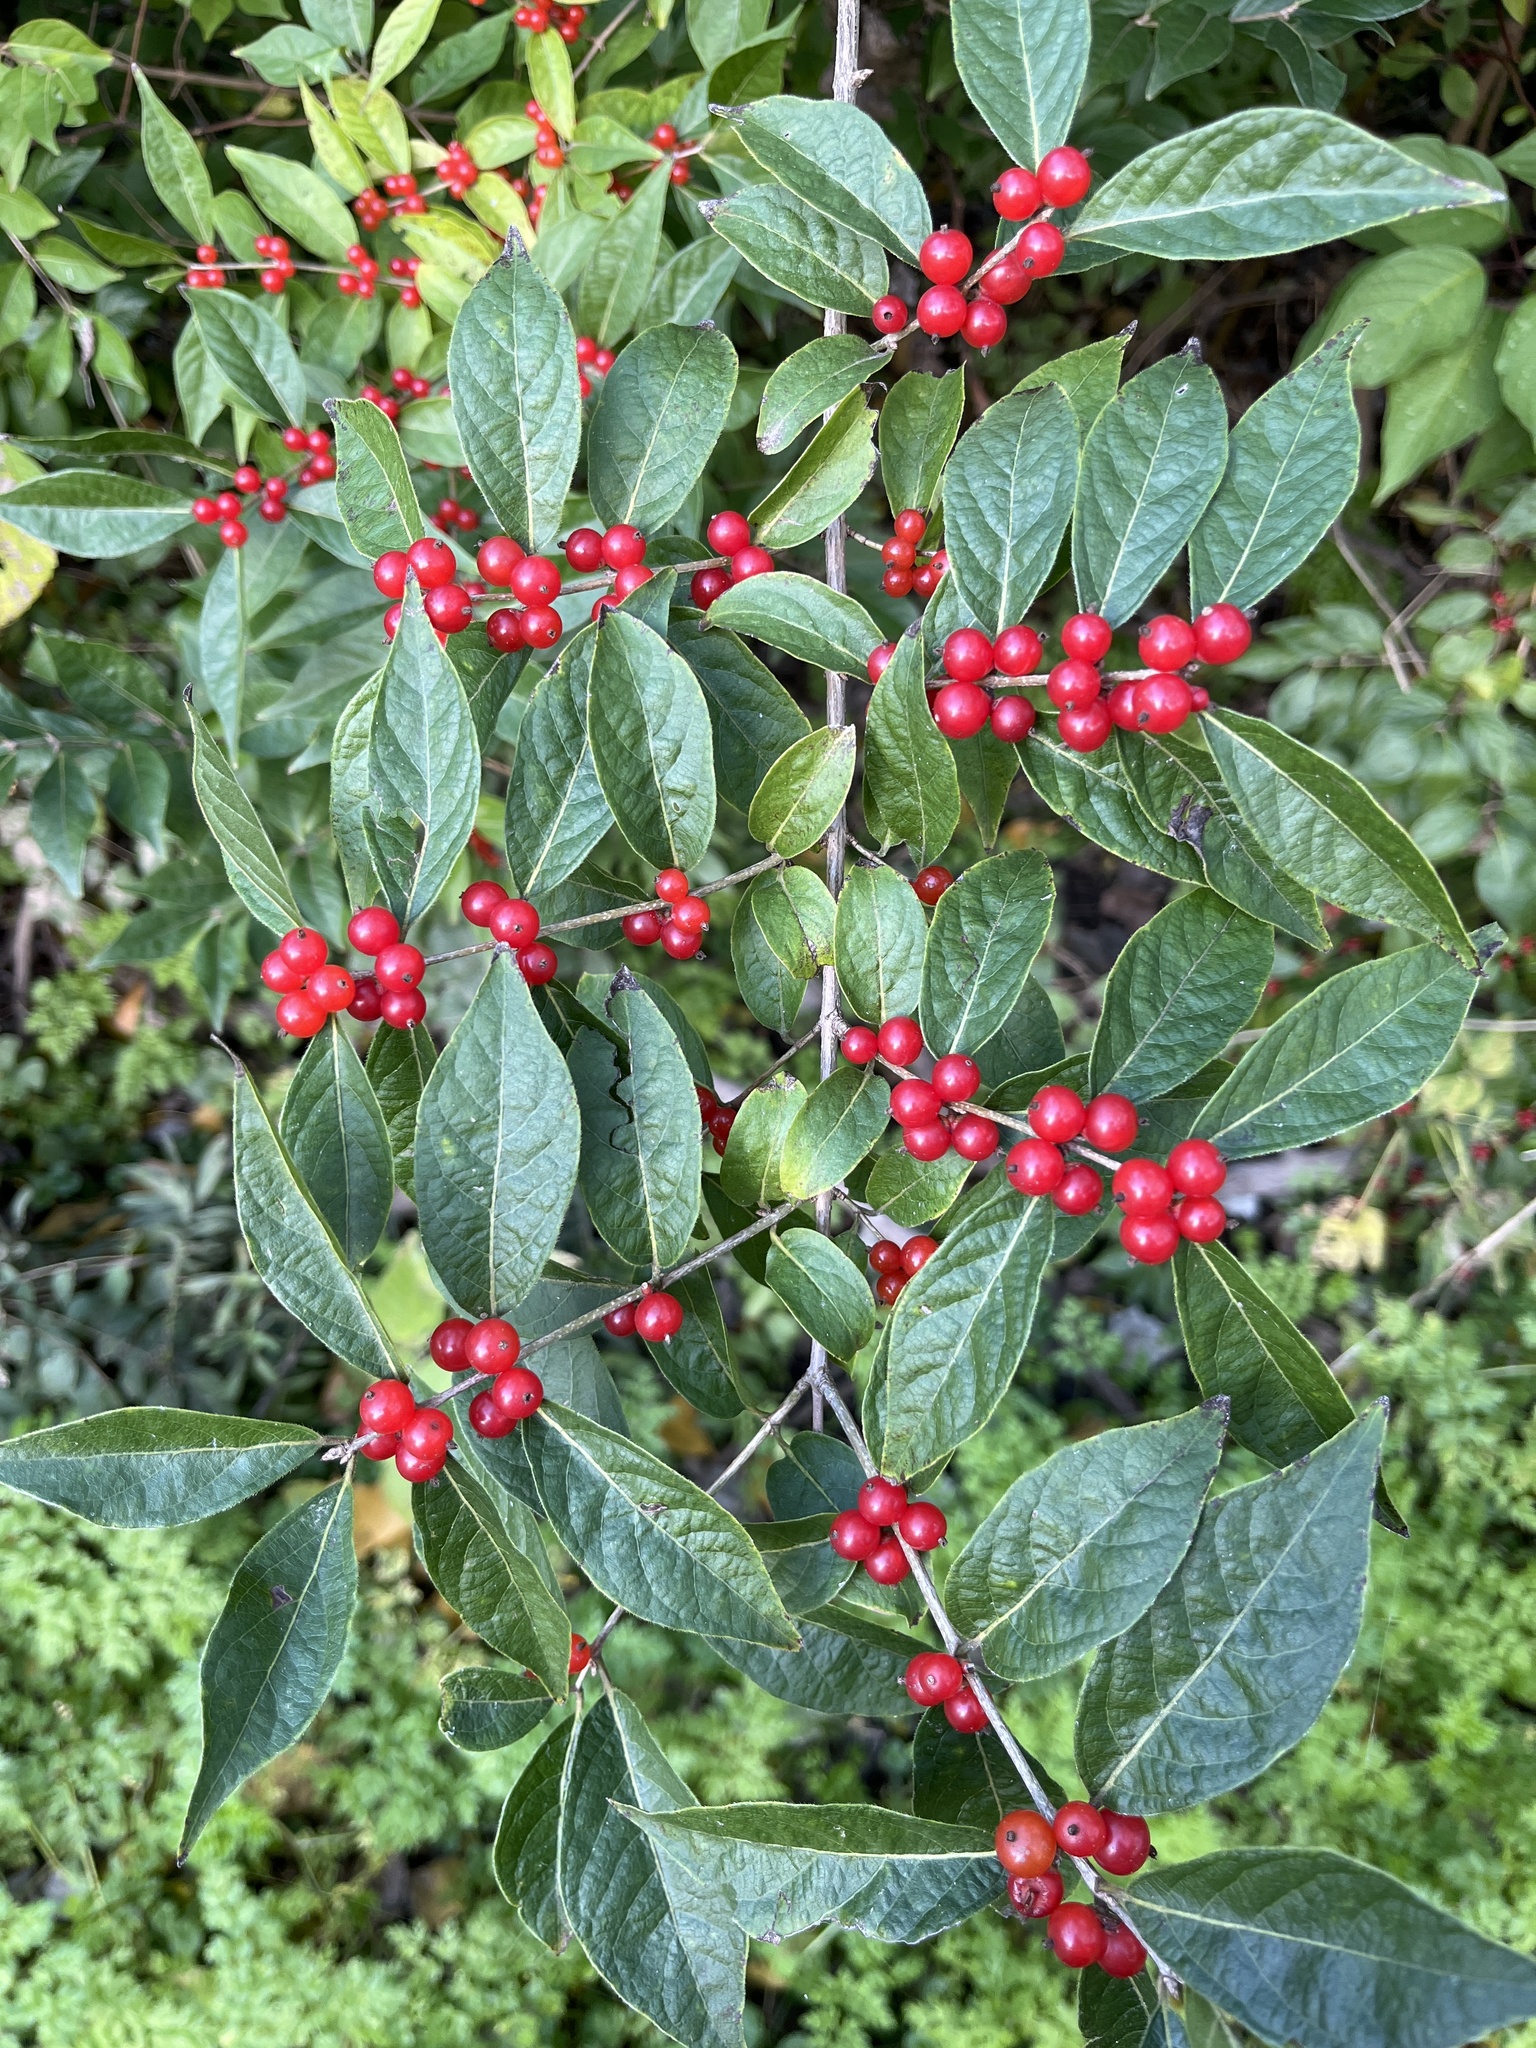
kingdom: Plantae
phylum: Tracheophyta
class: Magnoliopsida
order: Dipsacales
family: Caprifoliaceae
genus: Lonicera
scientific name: Lonicera maackii
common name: Amur honeysuckle
